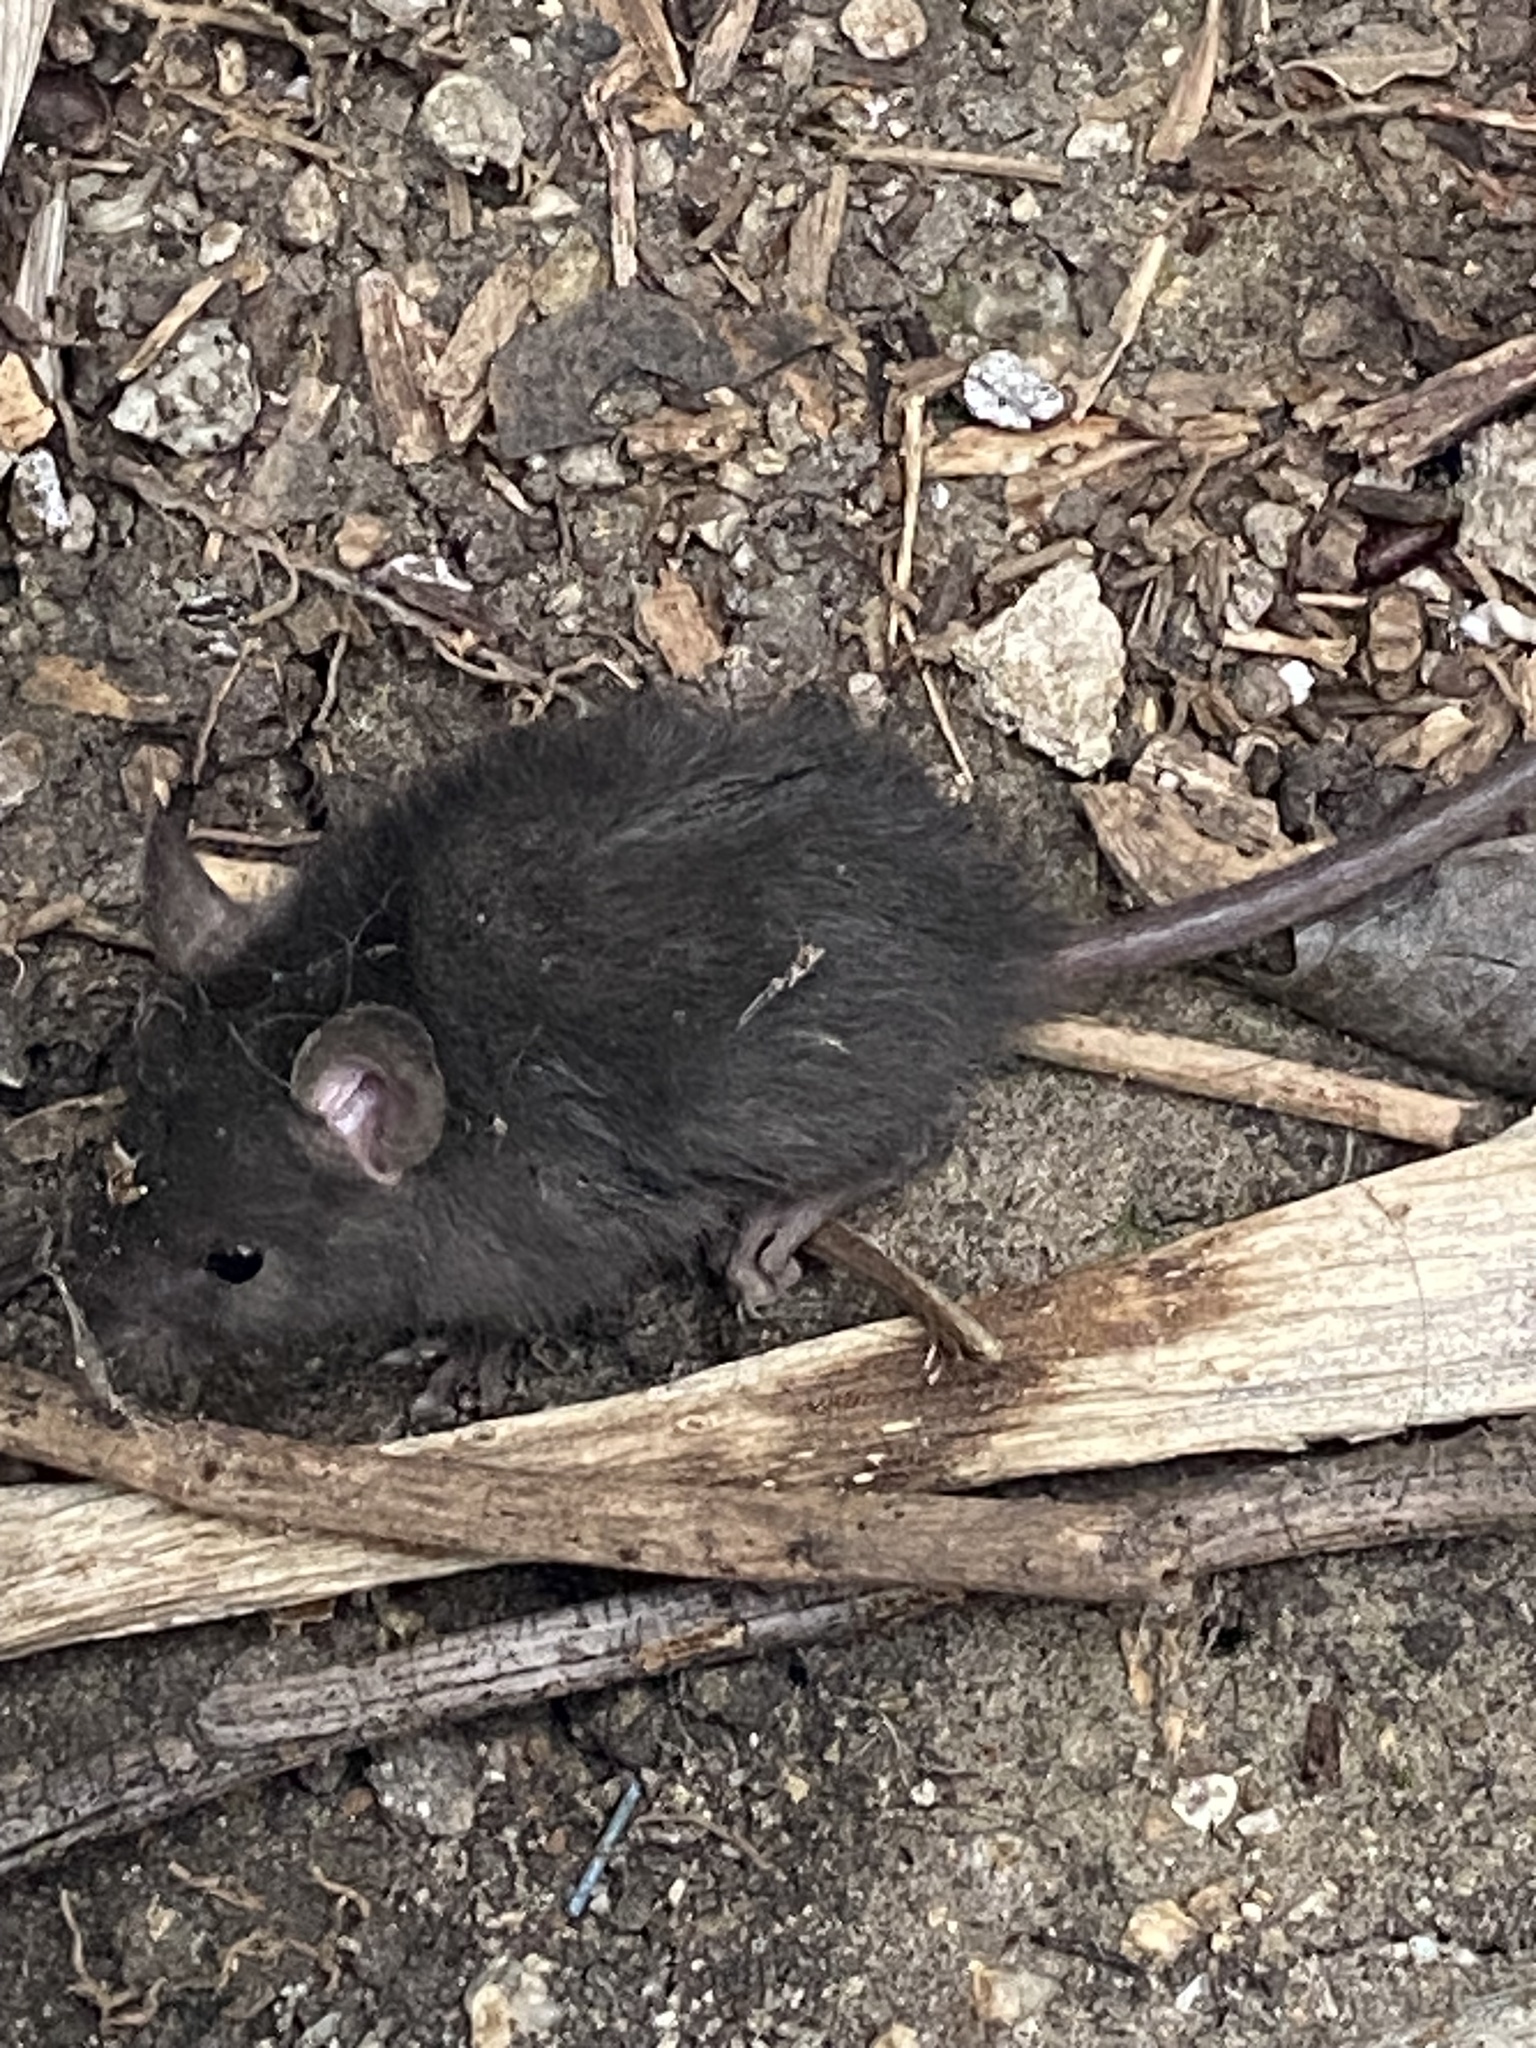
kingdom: Animalia
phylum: Chordata
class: Mammalia
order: Rodentia
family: Muridae
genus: Rattus
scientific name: Rattus rattus
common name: Black rat
